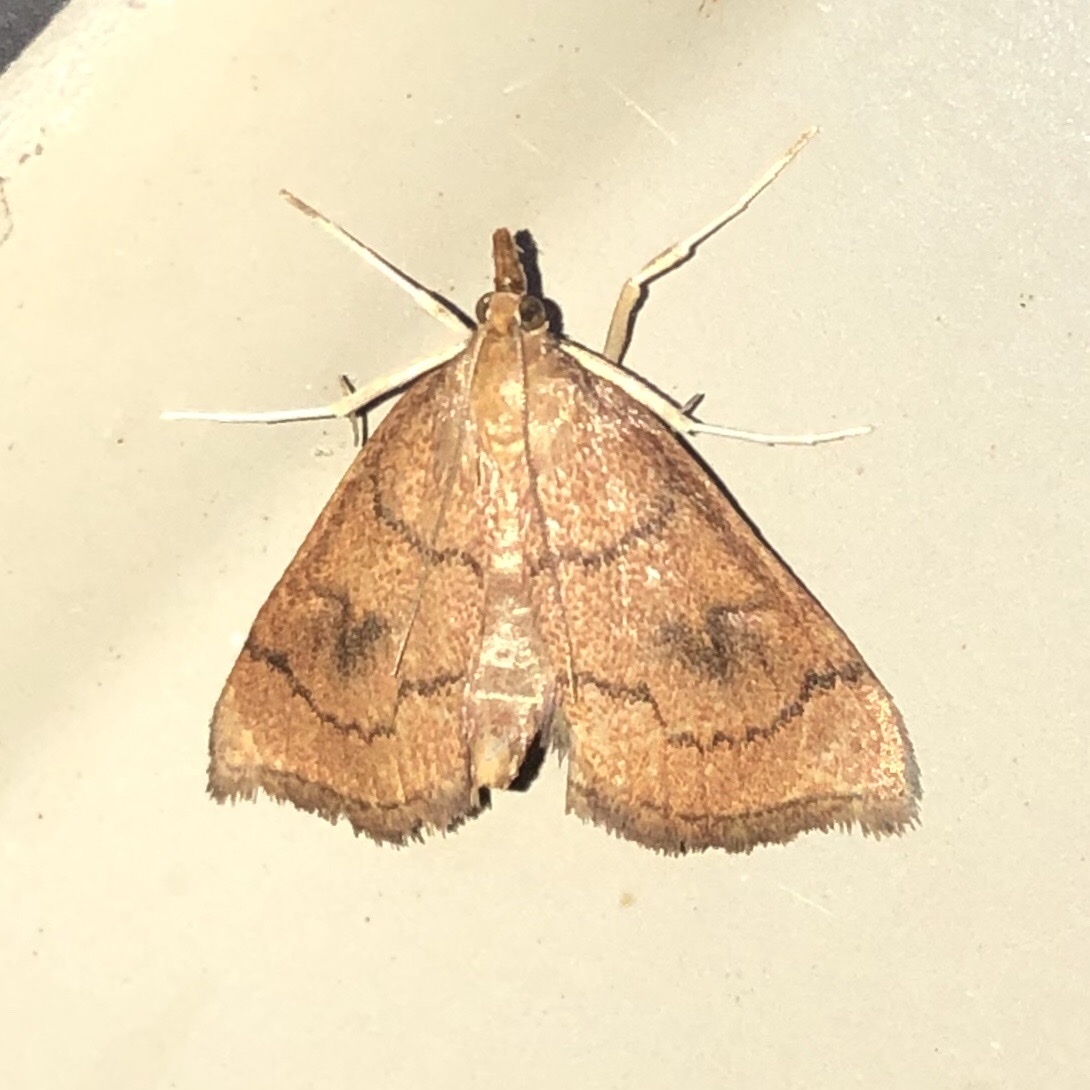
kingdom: Animalia
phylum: Arthropoda
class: Insecta
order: Lepidoptera
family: Crambidae
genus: Fumibotys
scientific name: Fumibotys fumalis
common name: Mint root borer moth
